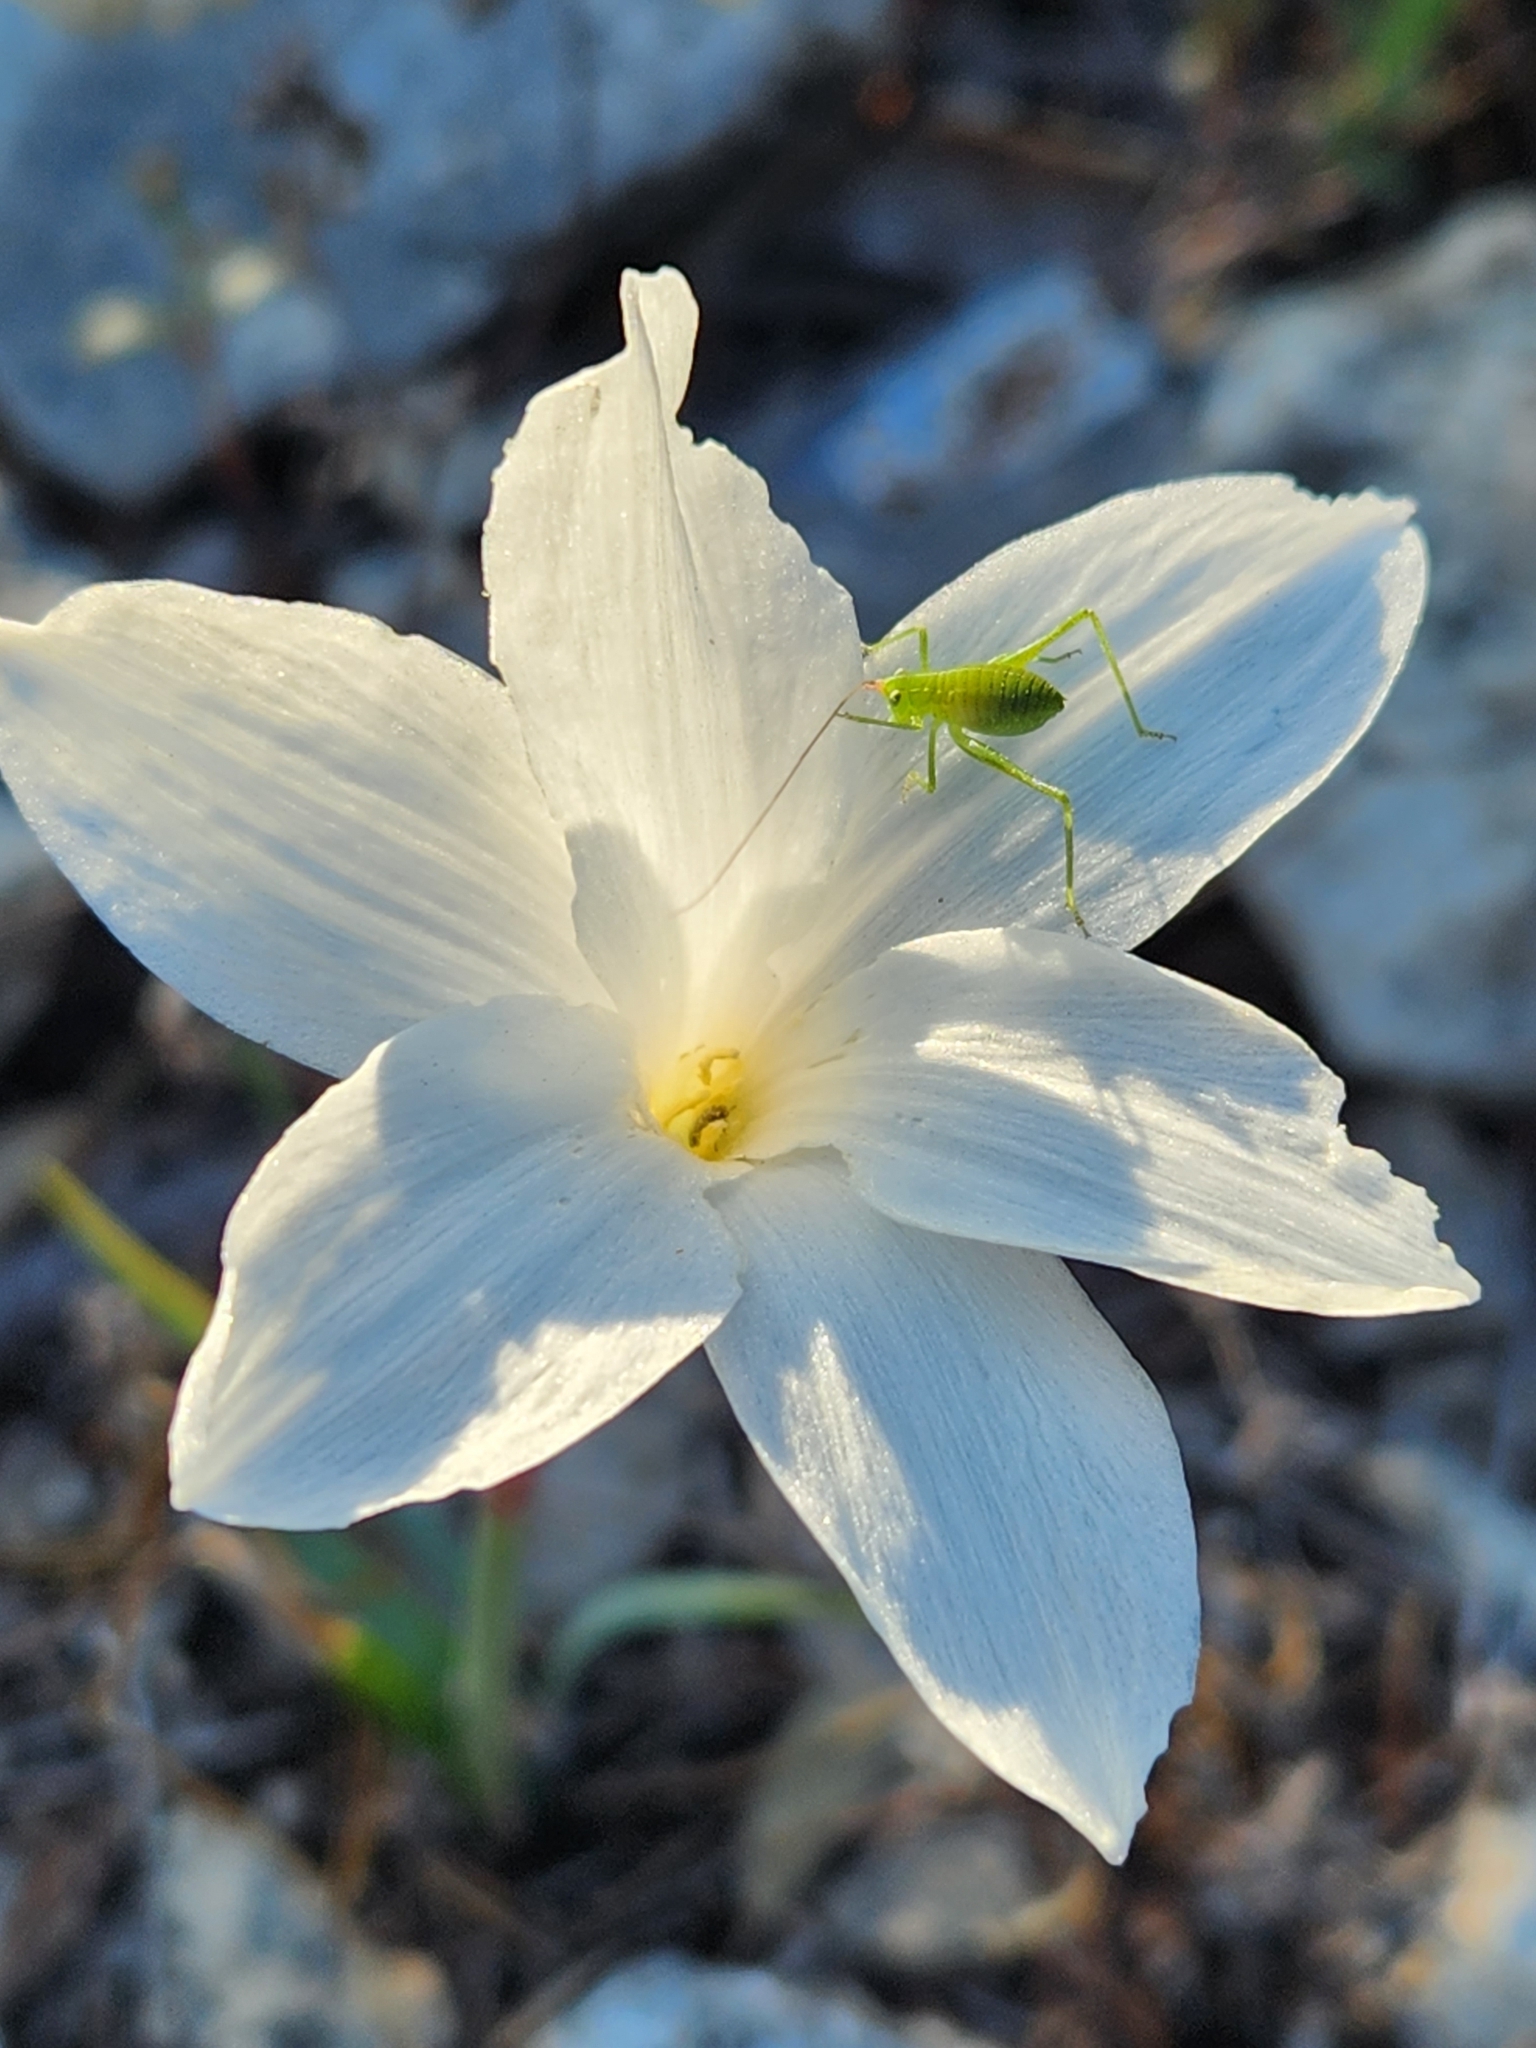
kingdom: Plantae
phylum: Tracheophyta
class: Liliopsida
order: Asparagales
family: Amaryllidaceae
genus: Zephyranthes
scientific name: Zephyranthes drummondii
